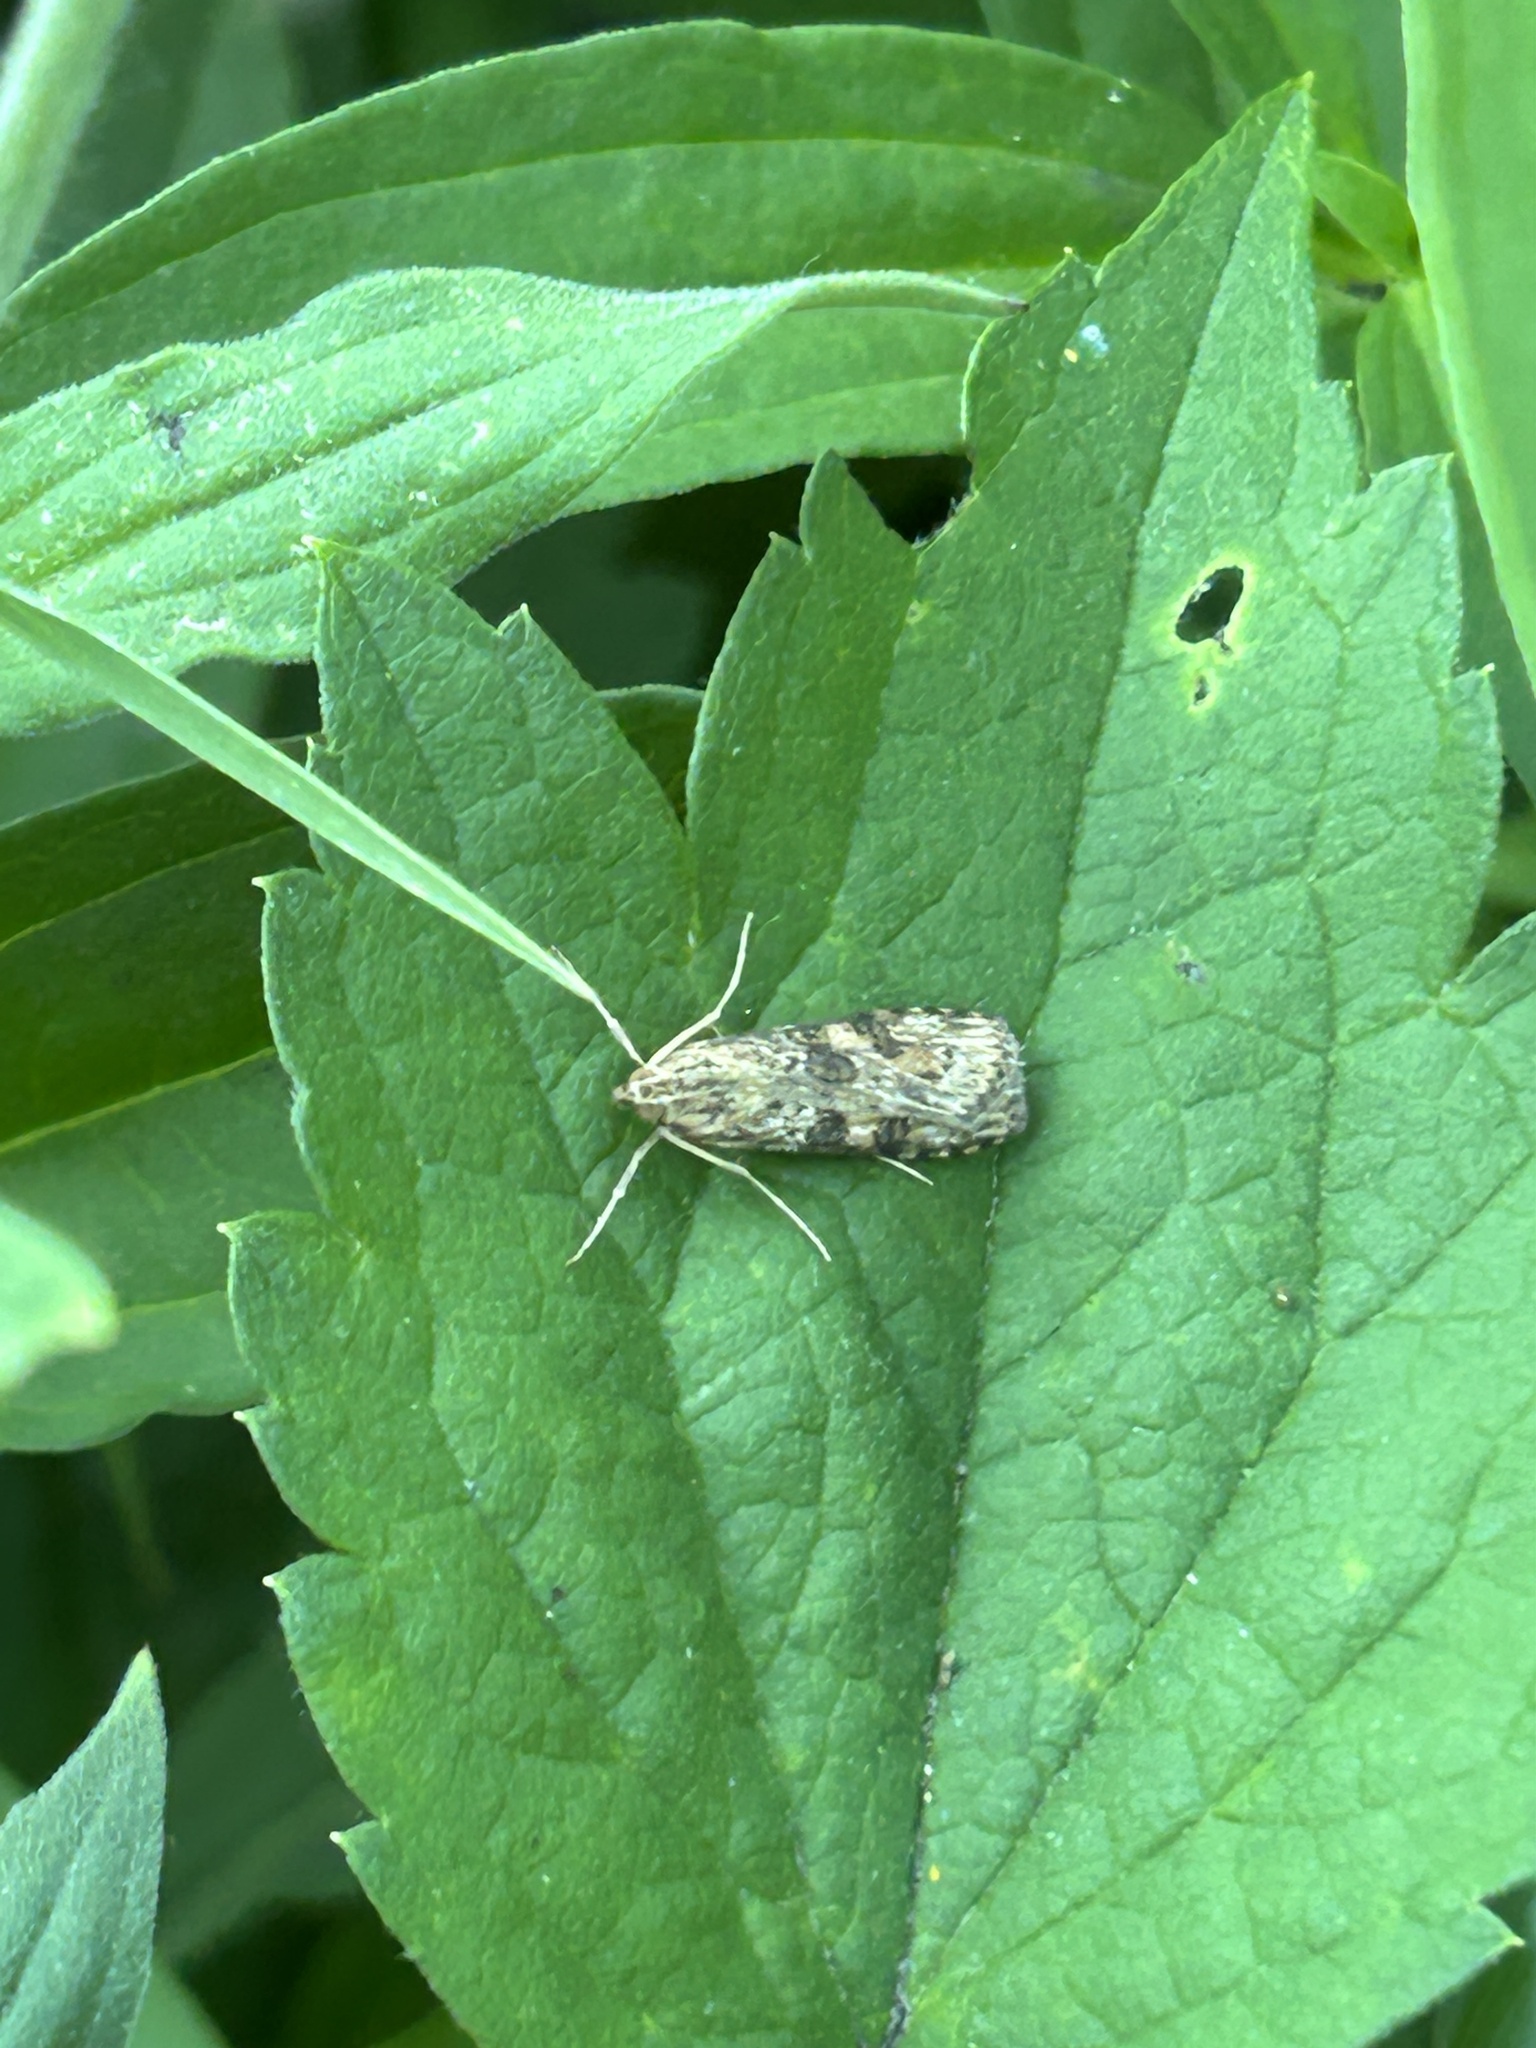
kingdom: Animalia
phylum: Arthropoda
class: Insecta
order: Lepidoptera
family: Crambidae
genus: Nomophila
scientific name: Nomophila nearctica
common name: American rush veneer
